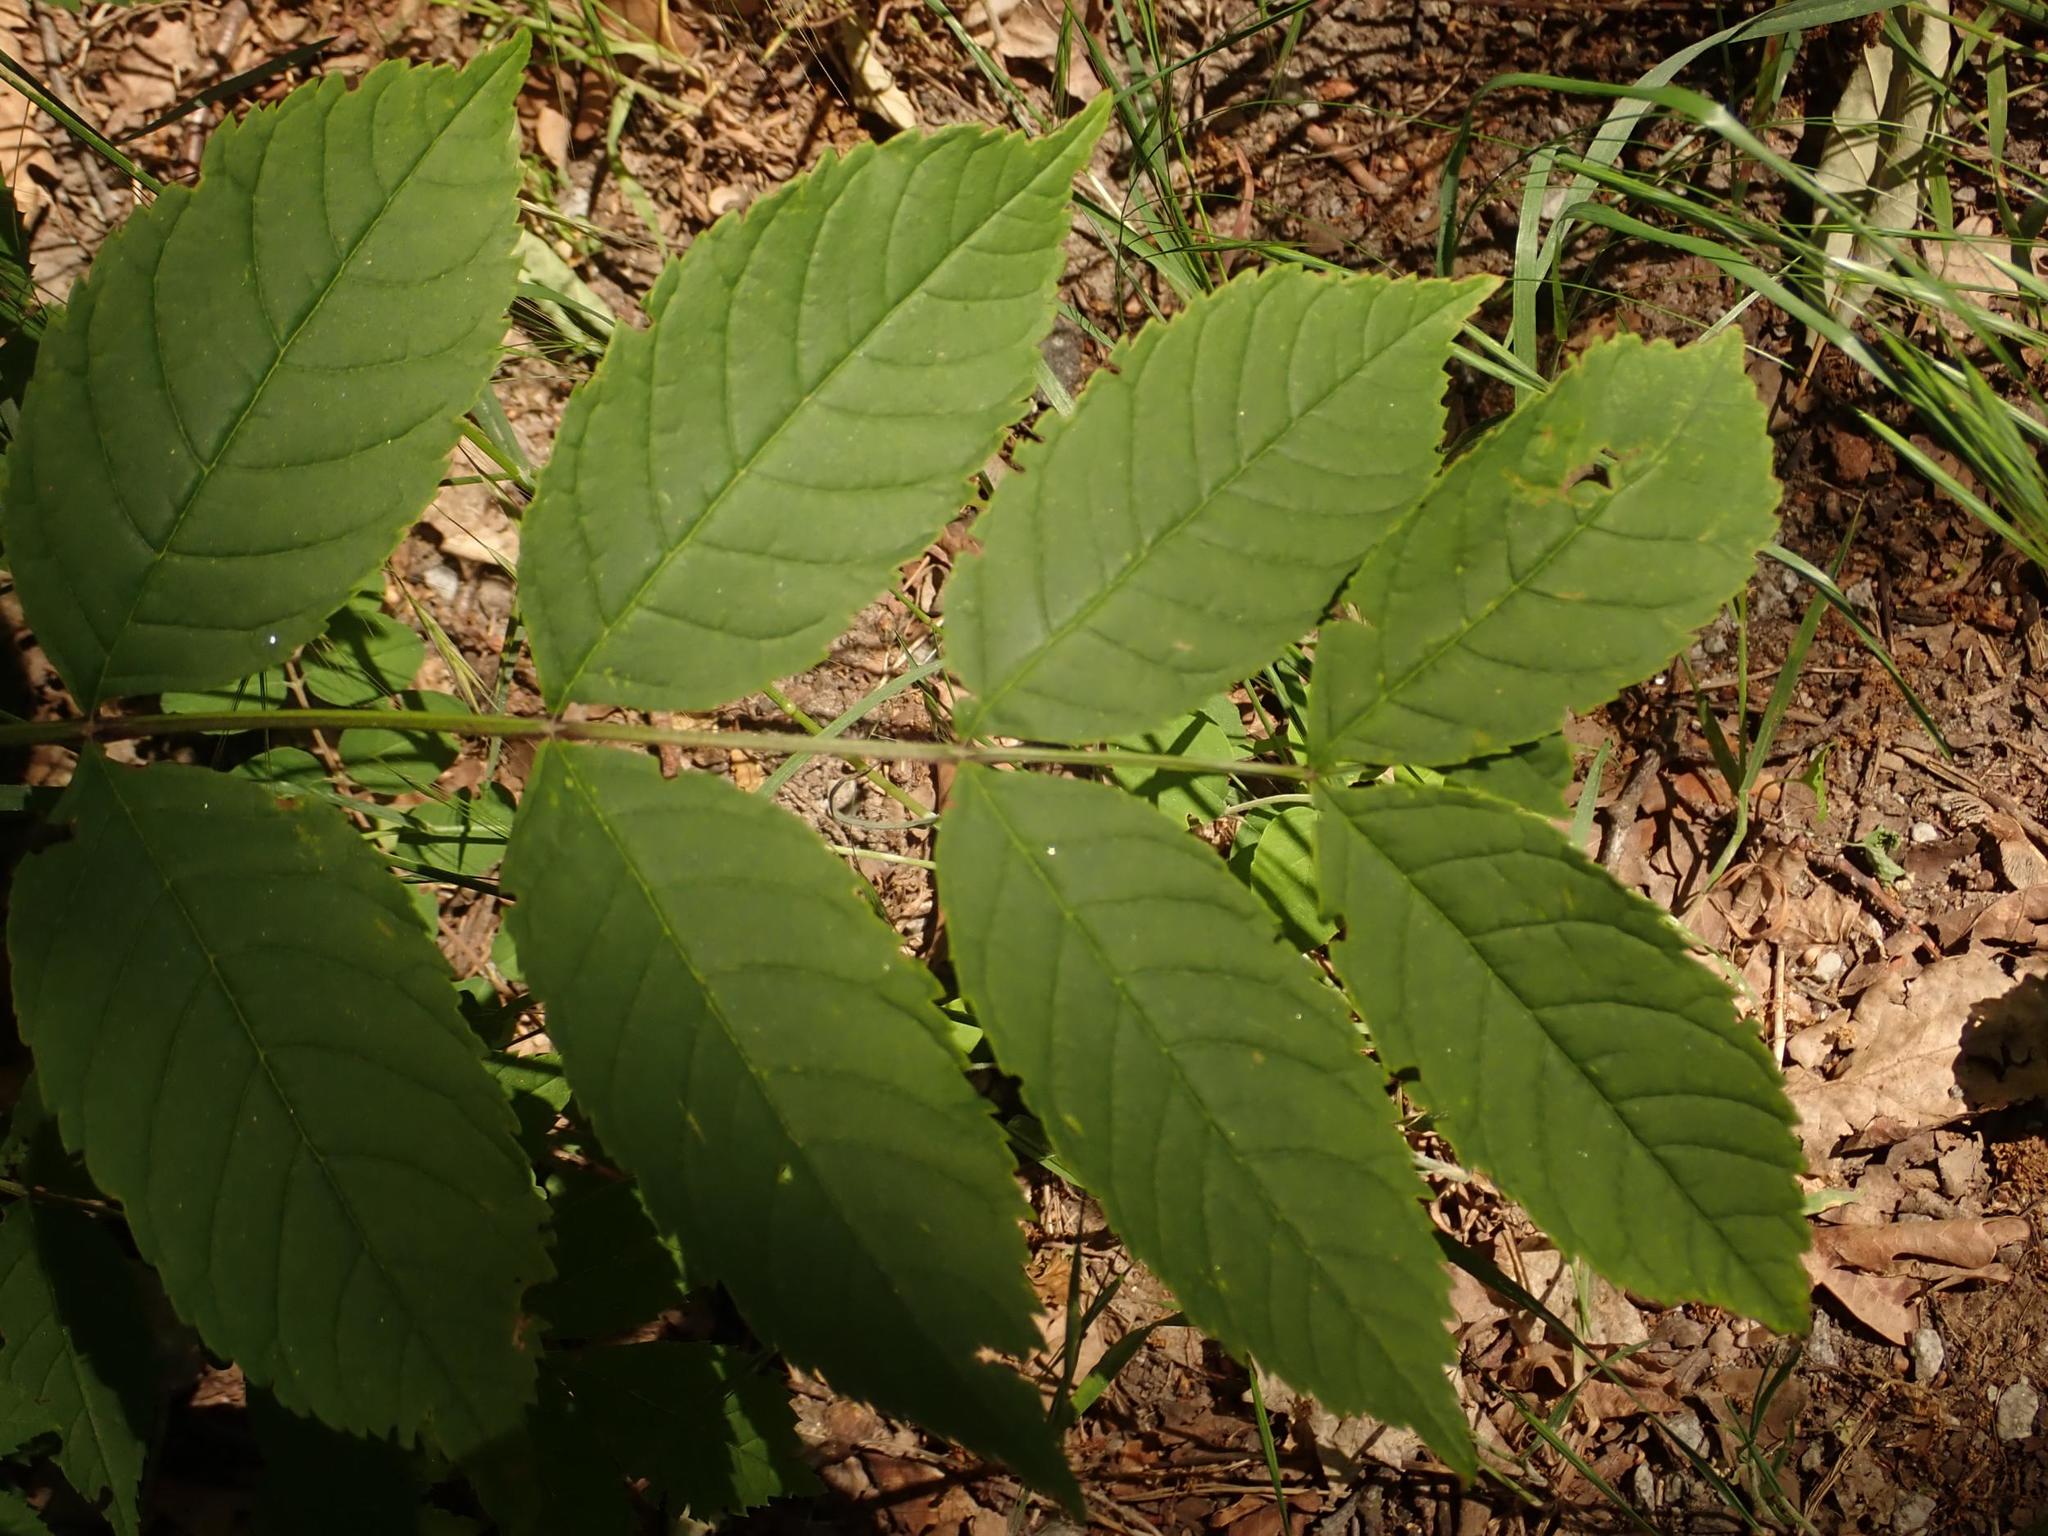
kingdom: Plantae
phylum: Tracheophyta
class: Magnoliopsida
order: Lamiales
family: Oleaceae
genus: Fraxinus
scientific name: Fraxinus excelsior
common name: European ash
